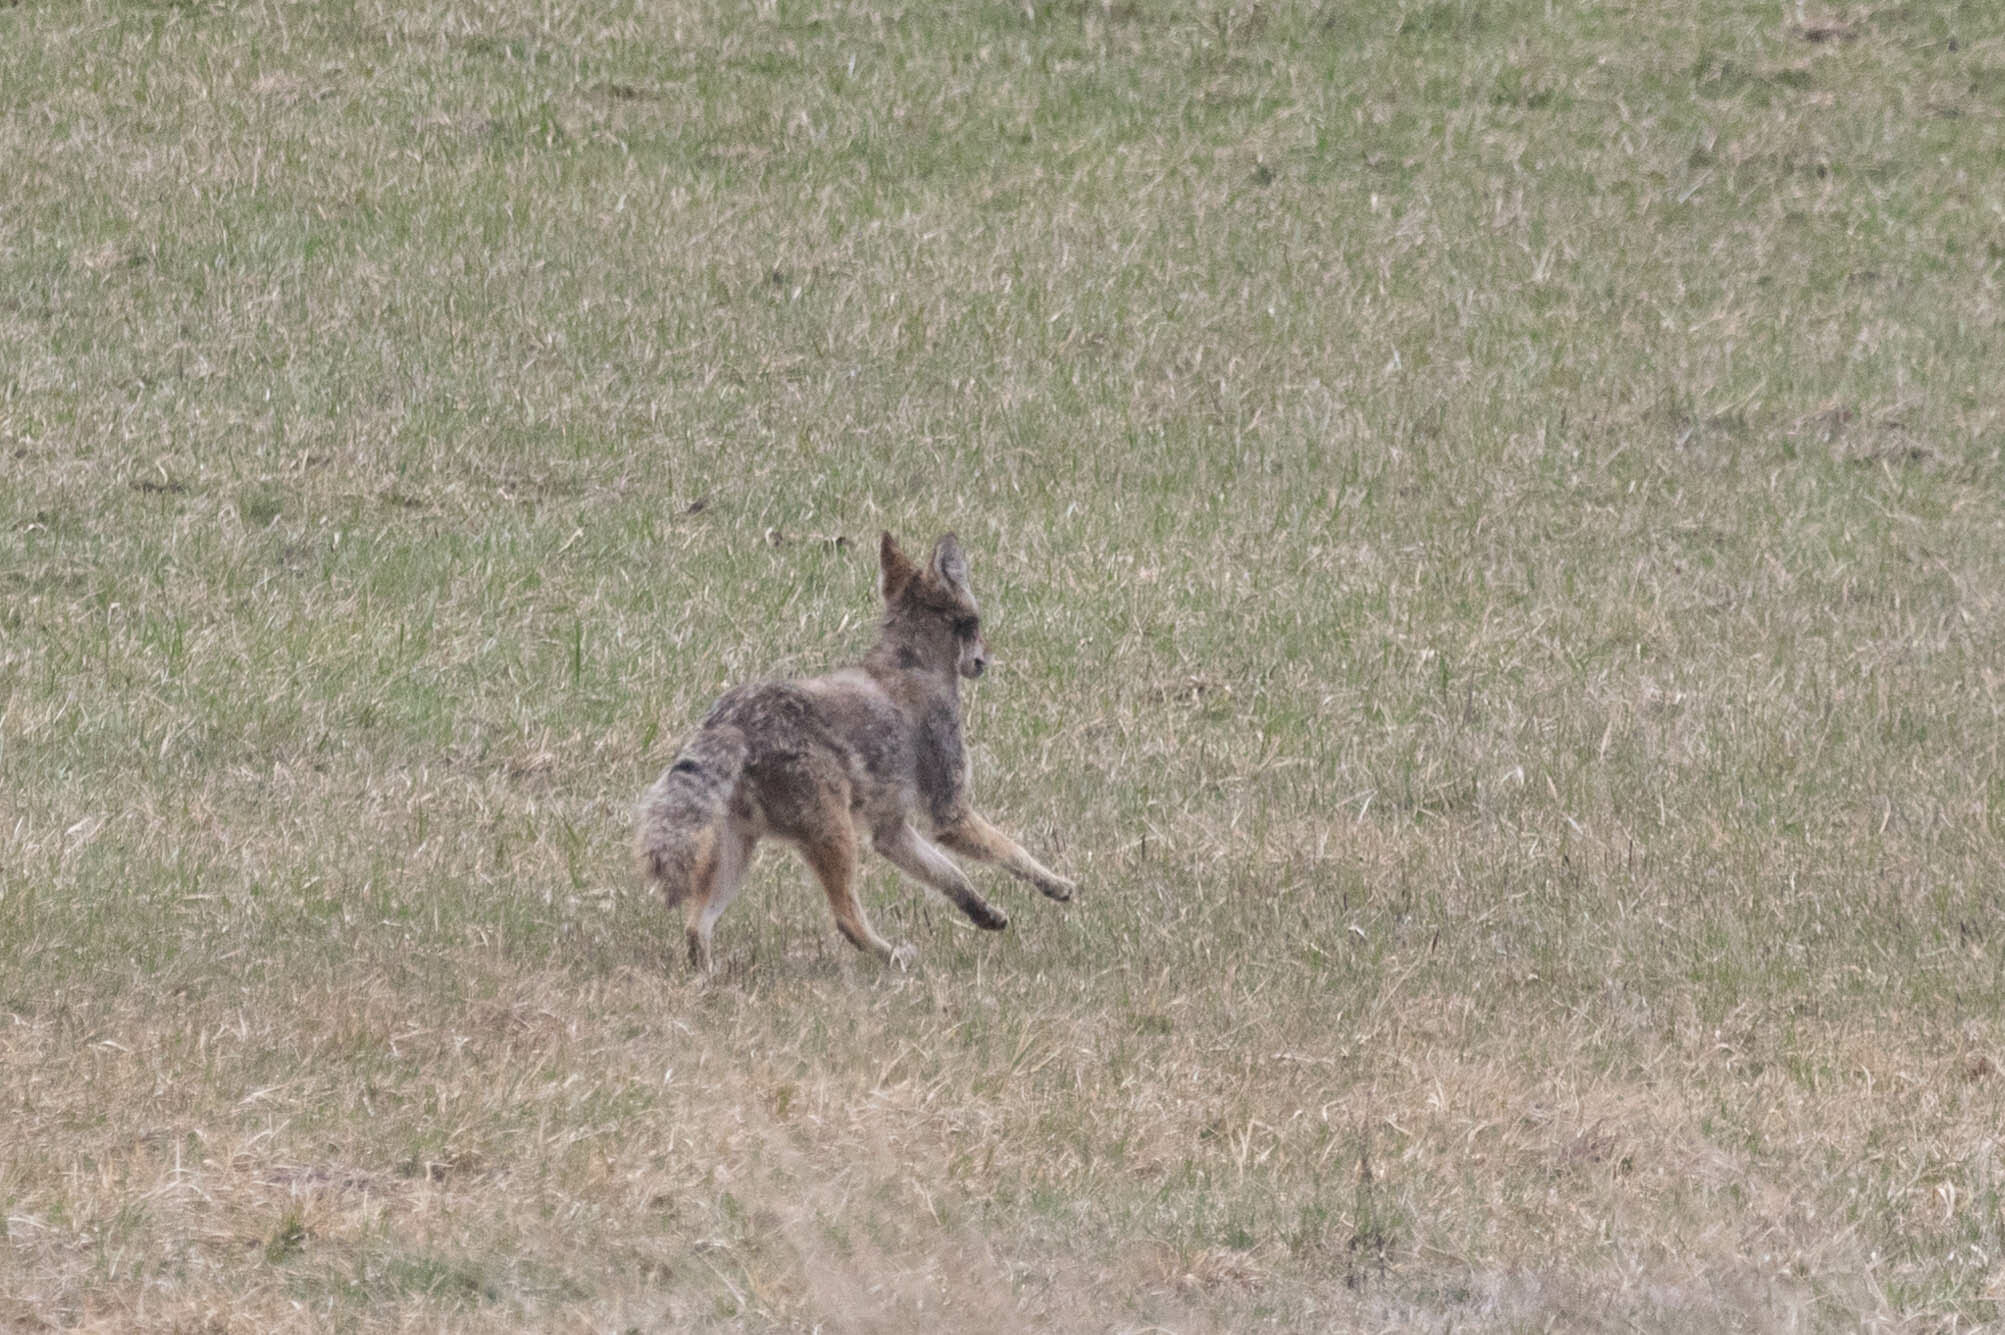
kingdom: Animalia
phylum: Chordata
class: Mammalia
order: Carnivora
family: Canidae
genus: Canis
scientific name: Canis latrans
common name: Coyote
